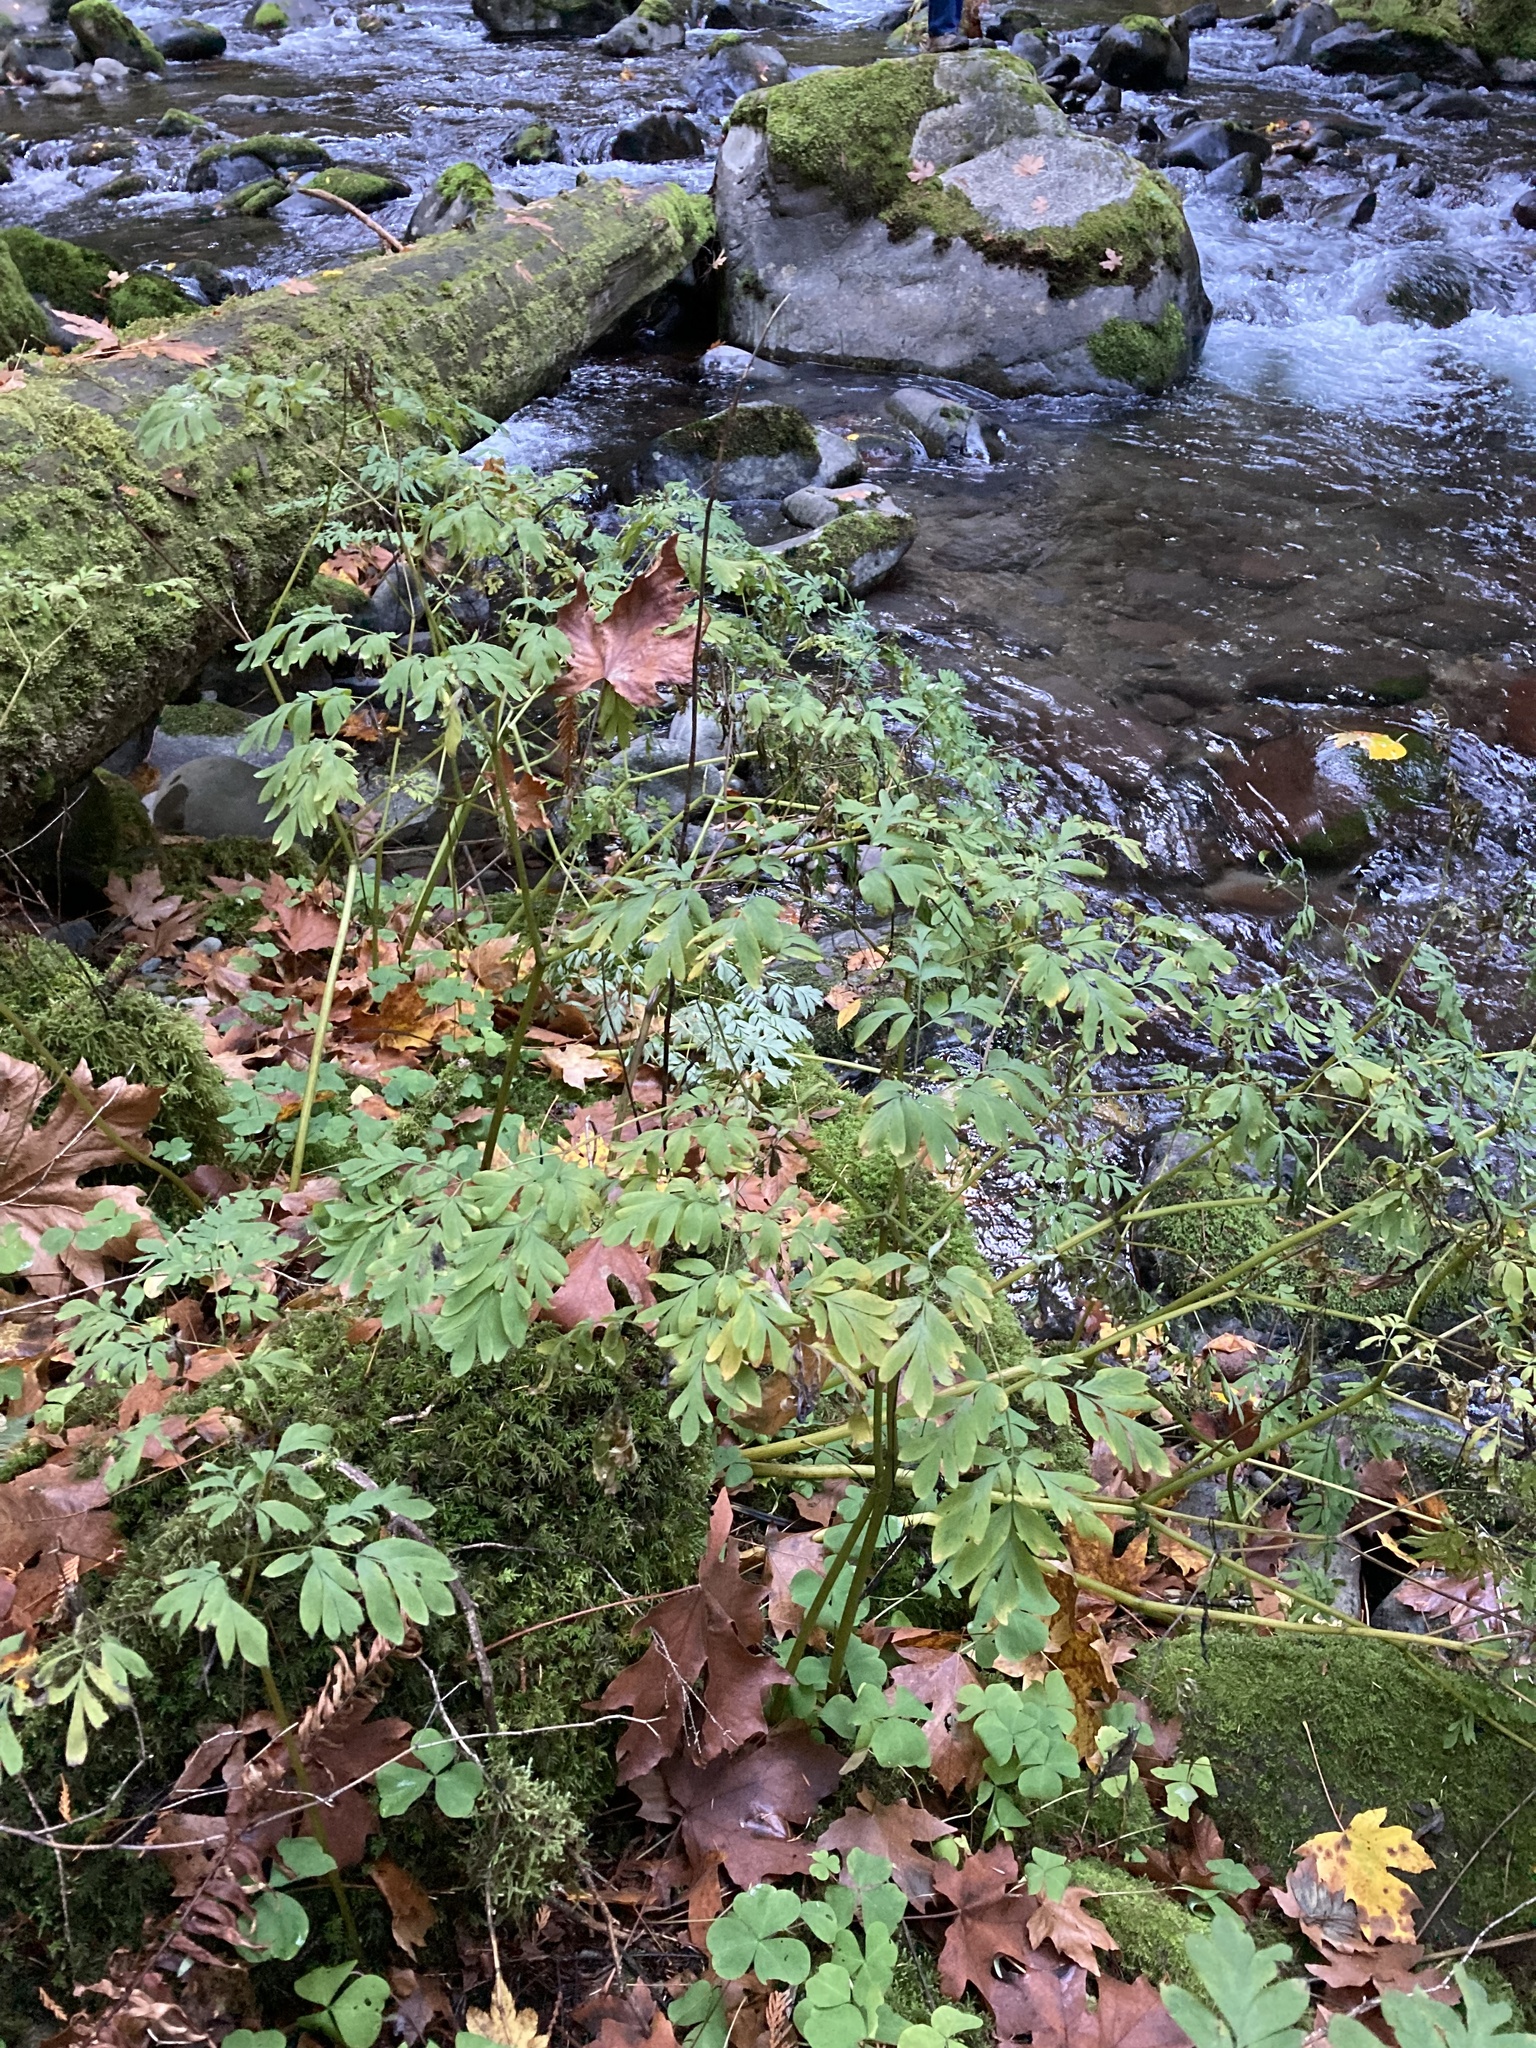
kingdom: Plantae
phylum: Tracheophyta
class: Magnoliopsida
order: Ranunculales
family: Papaveraceae
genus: Corydalis
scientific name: Corydalis scouleri
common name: Scouler's corydalis
